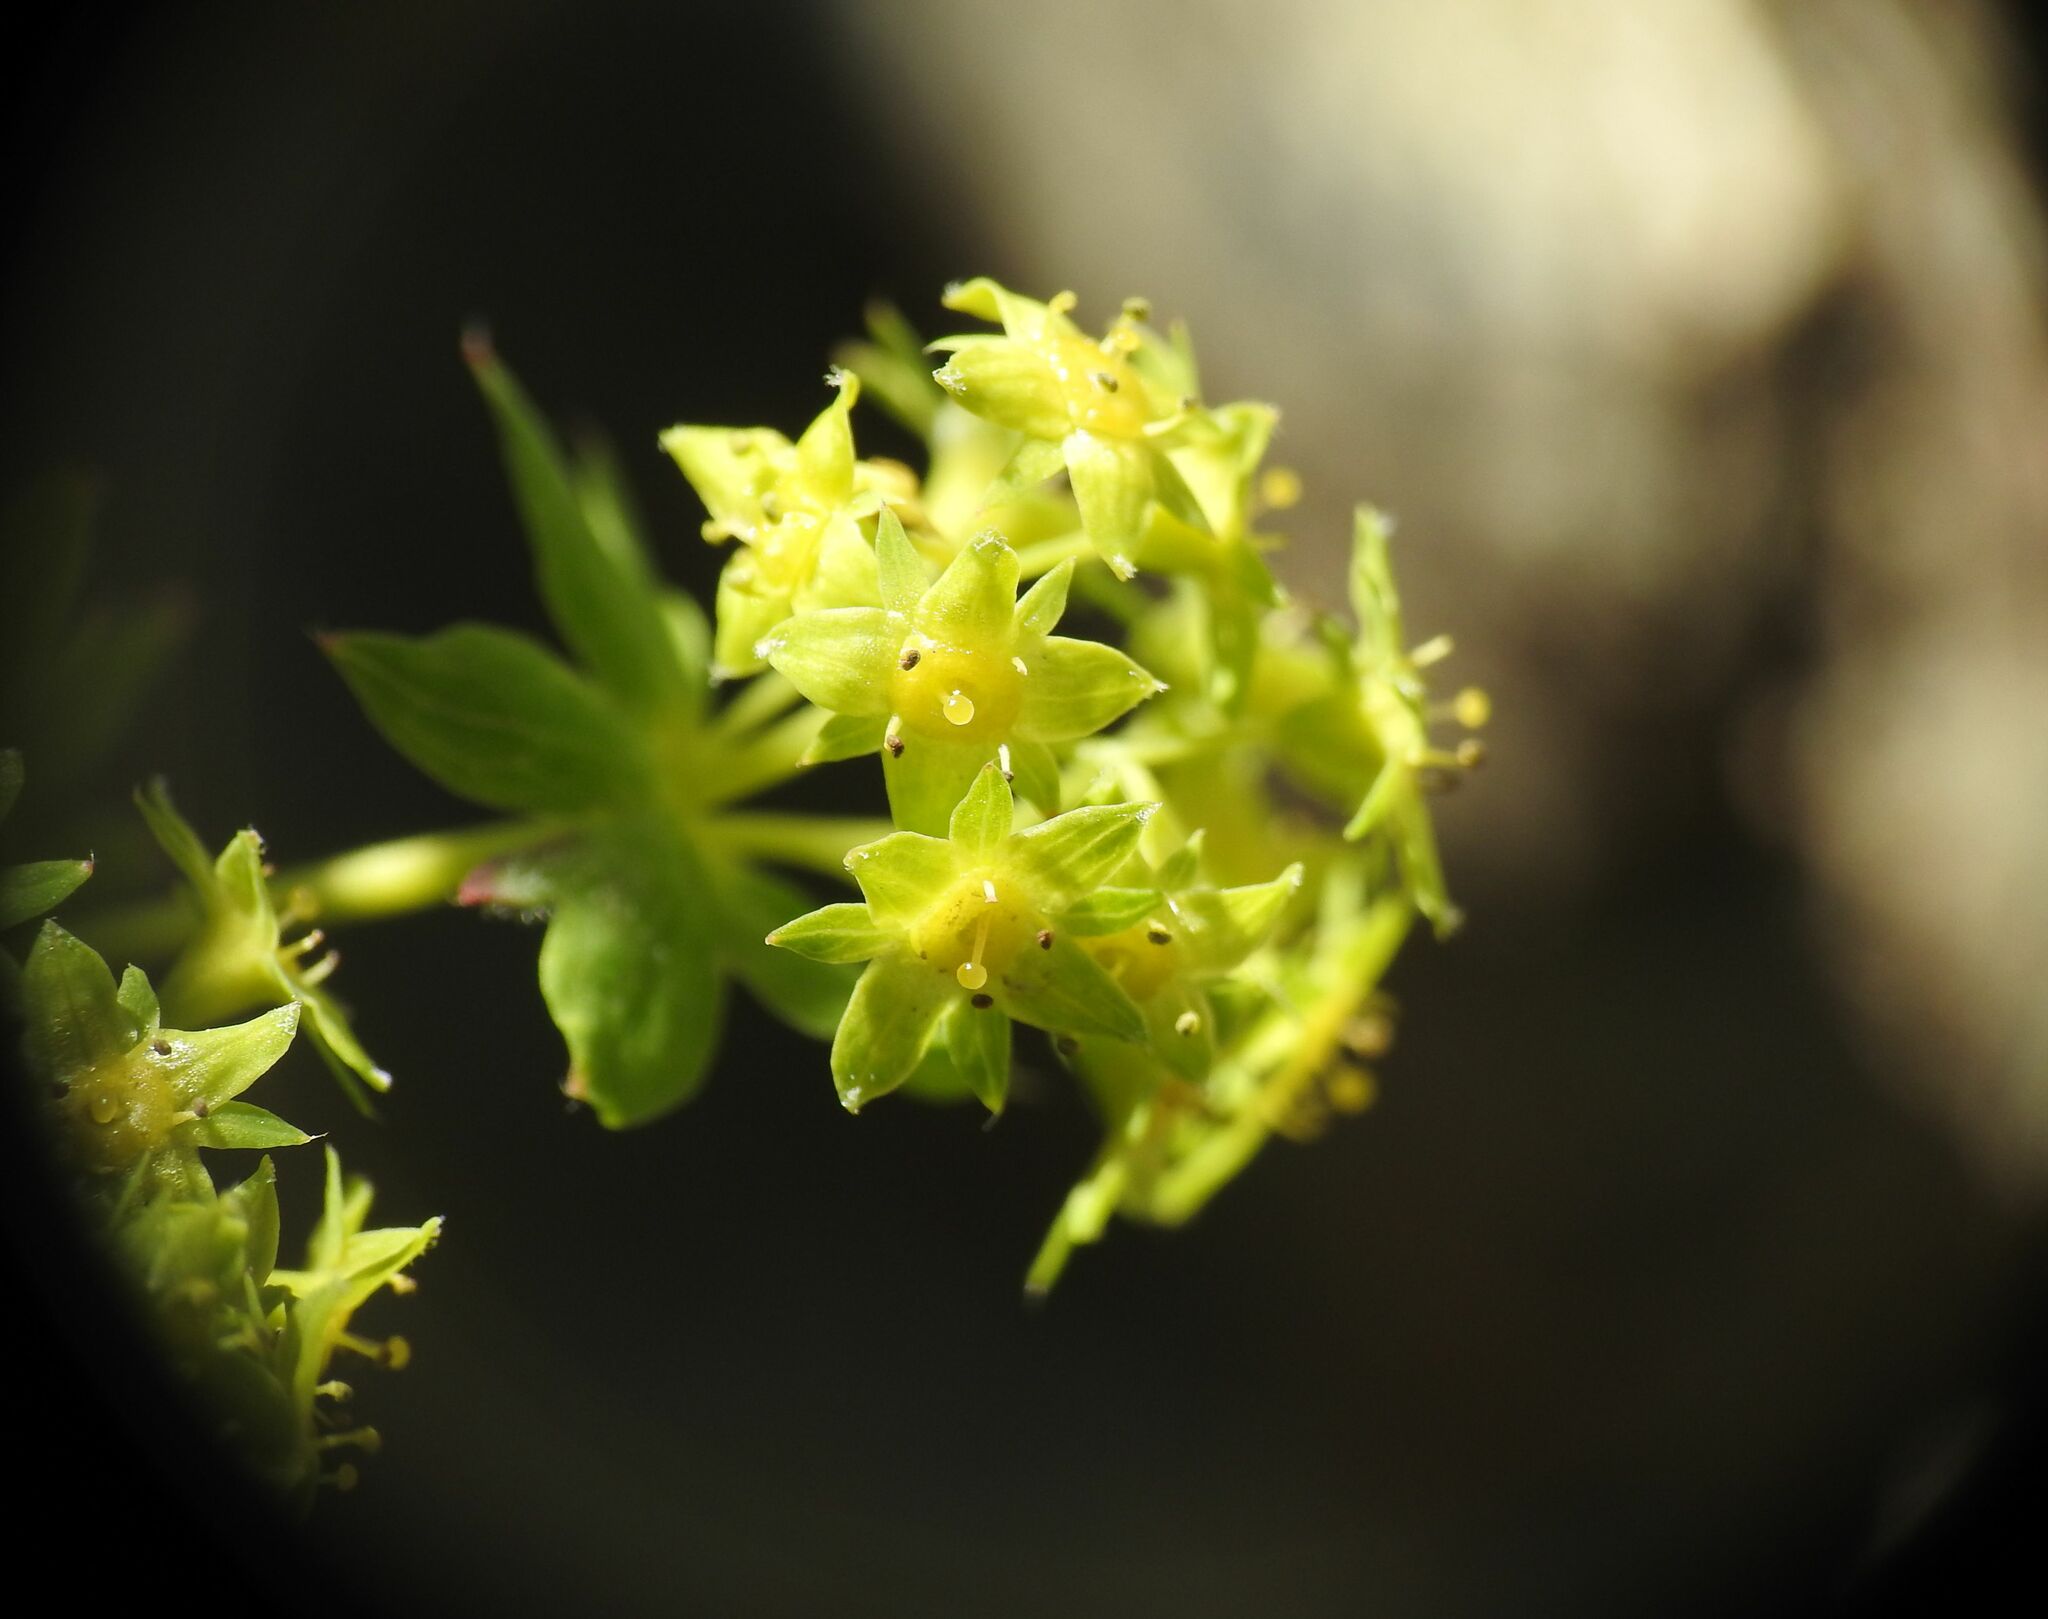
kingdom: Plantae
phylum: Tracheophyta
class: Magnoliopsida
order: Rosales
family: Rosaceae
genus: Alchemilla
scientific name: Alchemilla fissa
